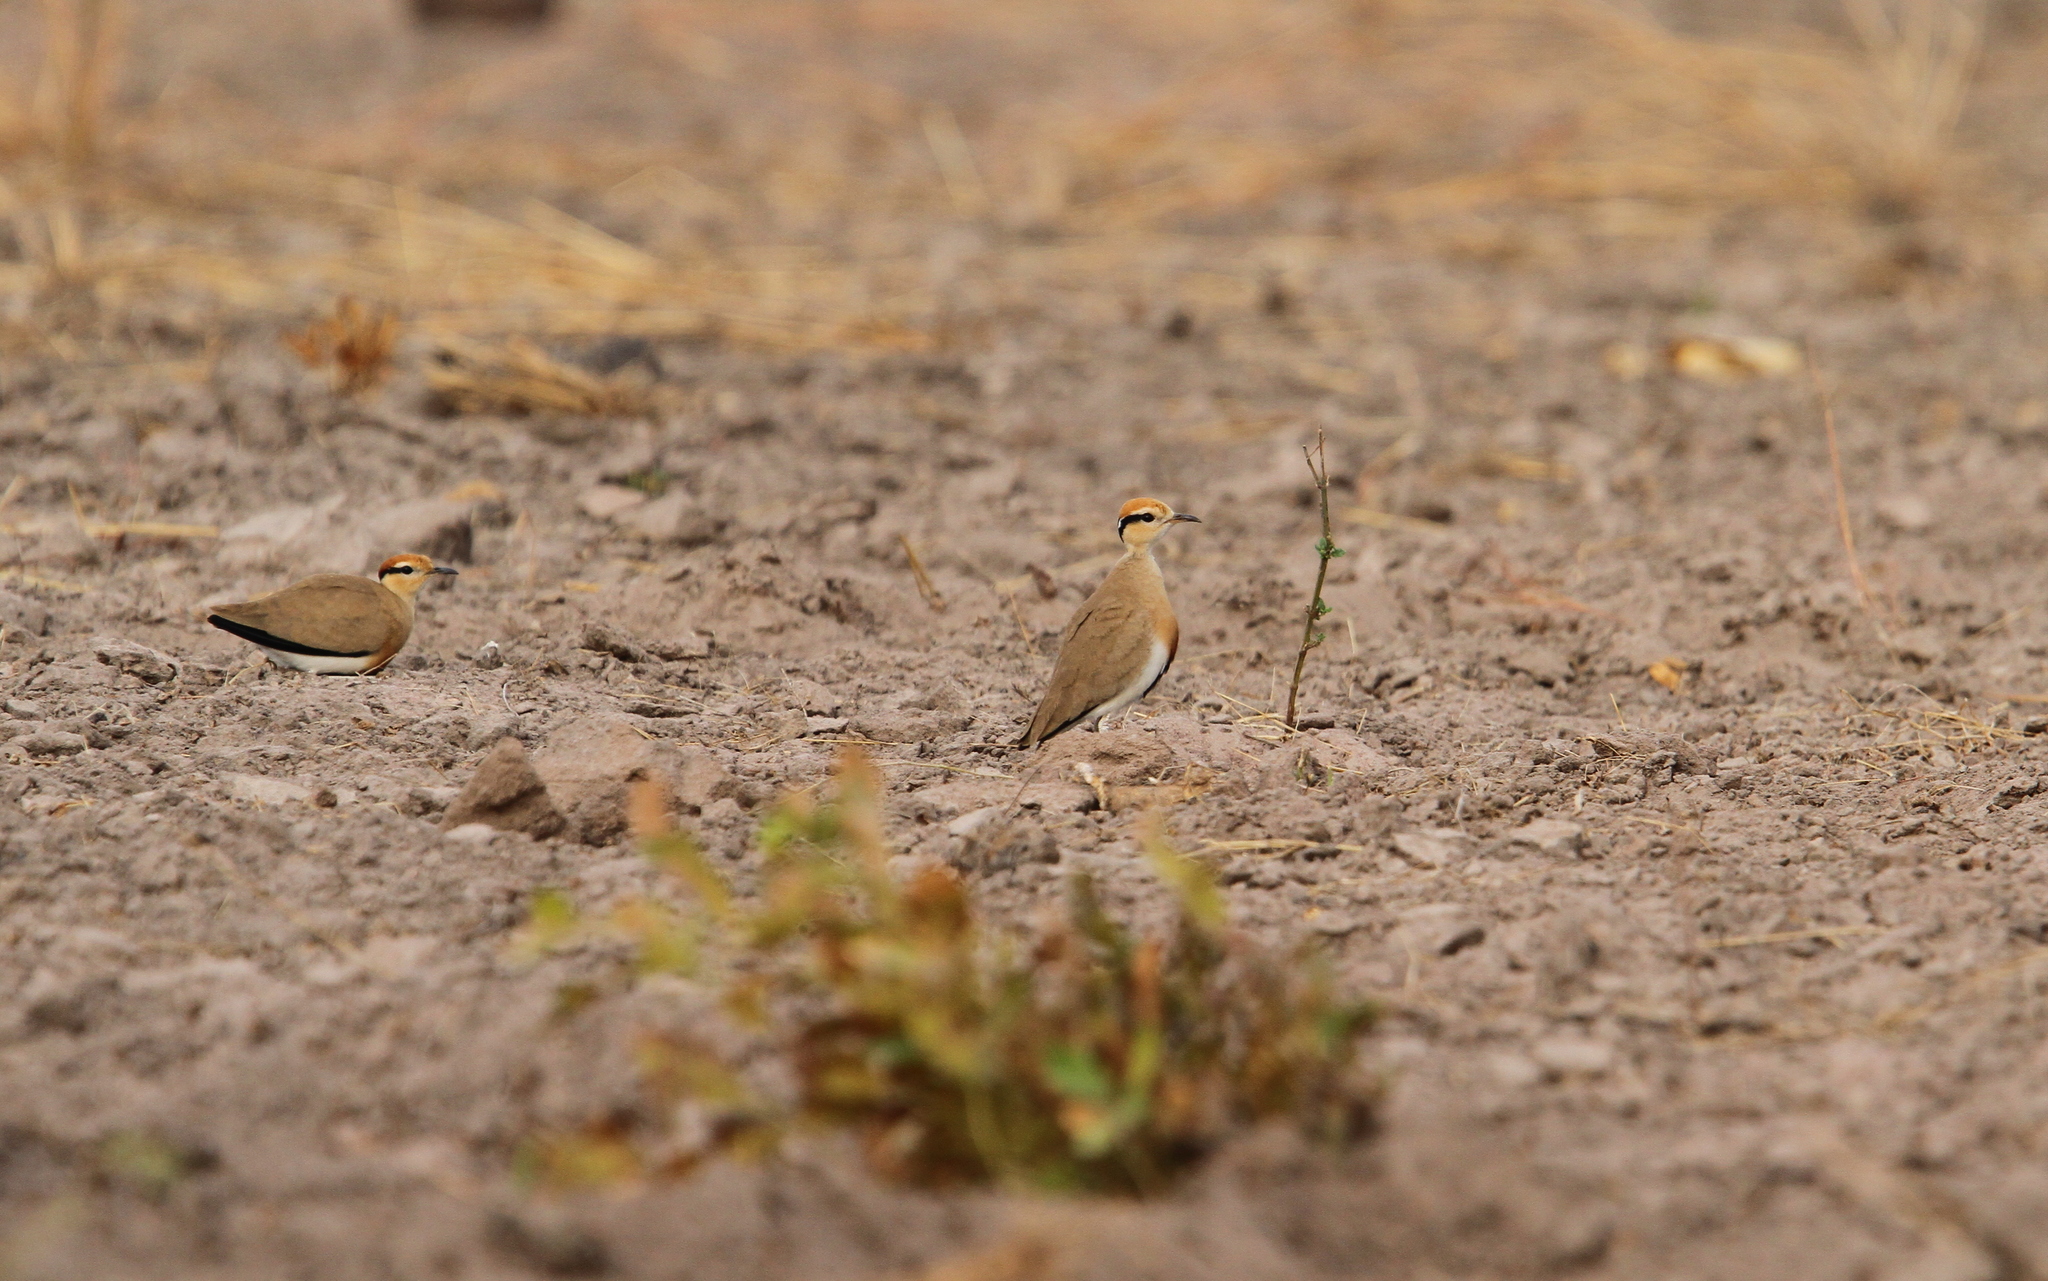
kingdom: Animalia
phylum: Chordata
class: Aves
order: Charadriiformes
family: Glareolidae
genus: Cursorius
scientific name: Cursorius temminckii
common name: Temminck's courser
